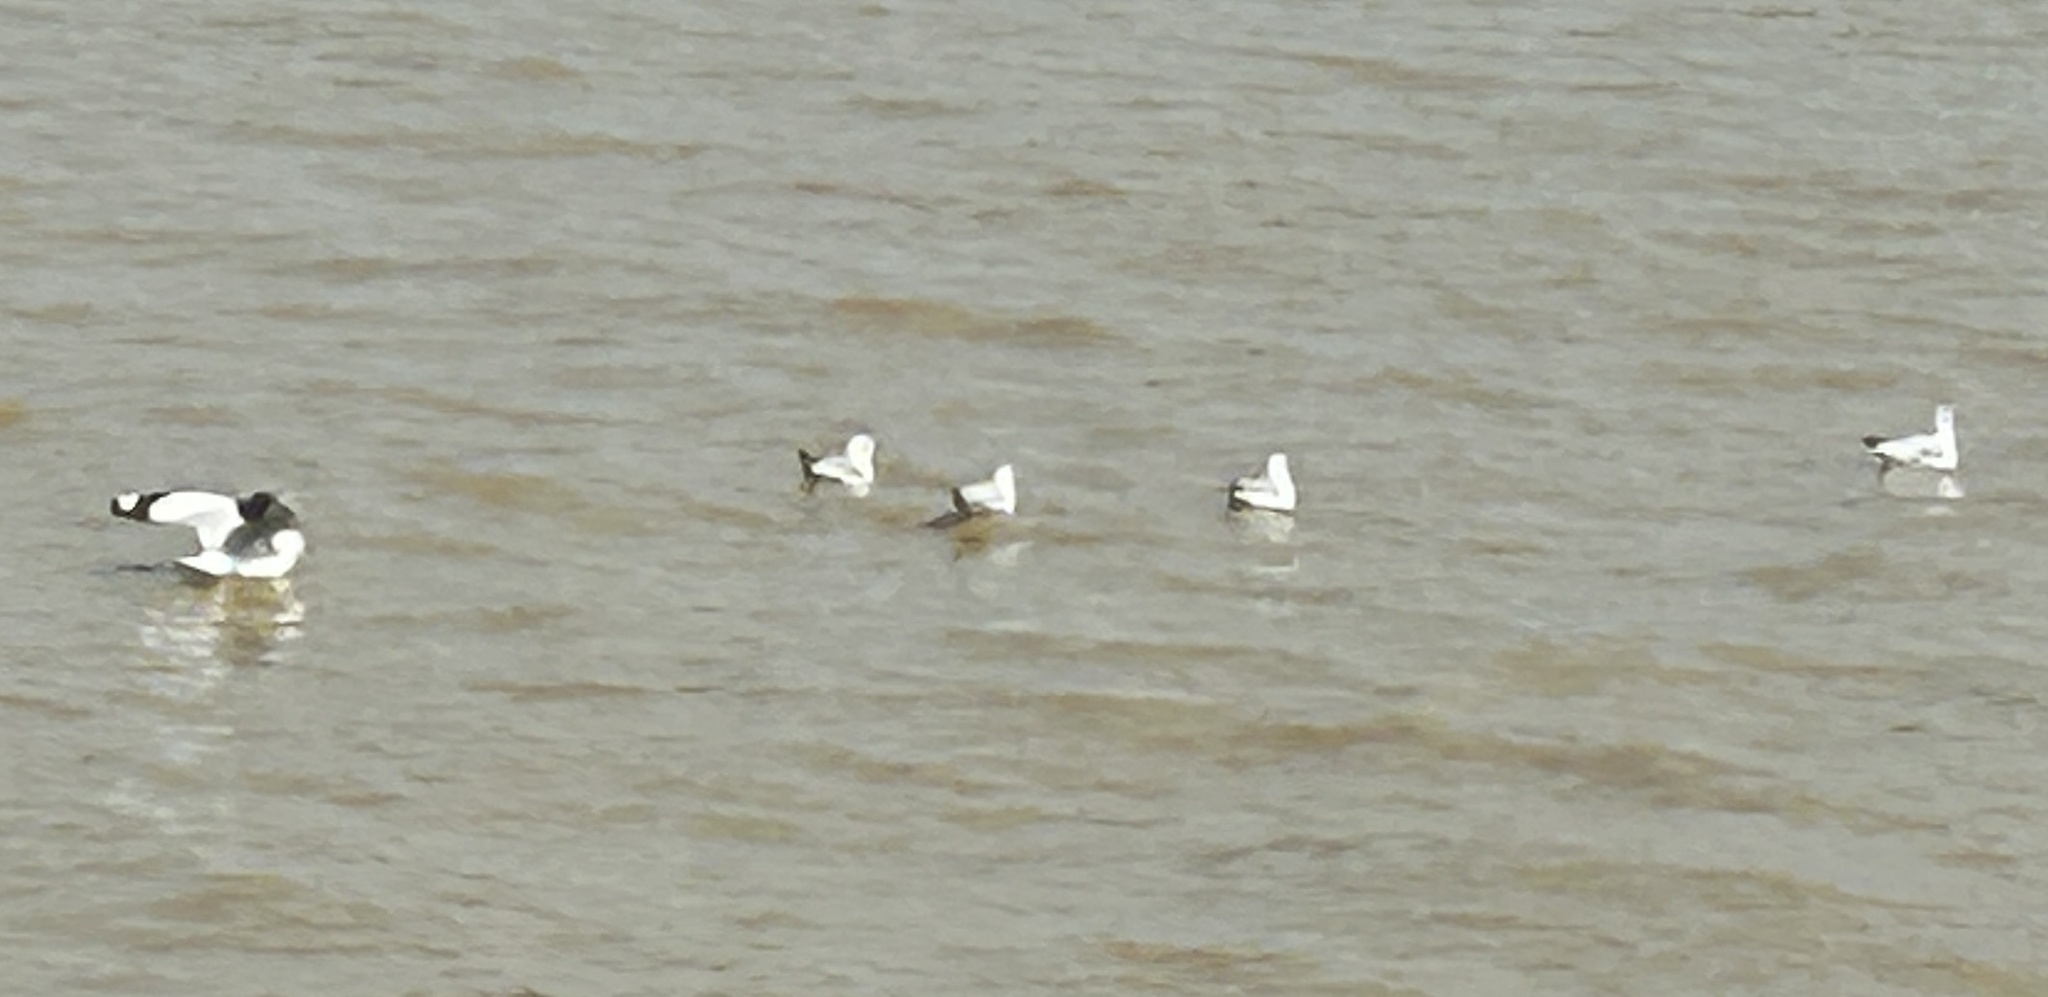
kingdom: Animalia
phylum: Chordata
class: Aves
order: Charadriiformes
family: Laridae
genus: Chroicocephalus
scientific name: Chroicocephalus brunnicephalus
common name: Brown-headed gull
